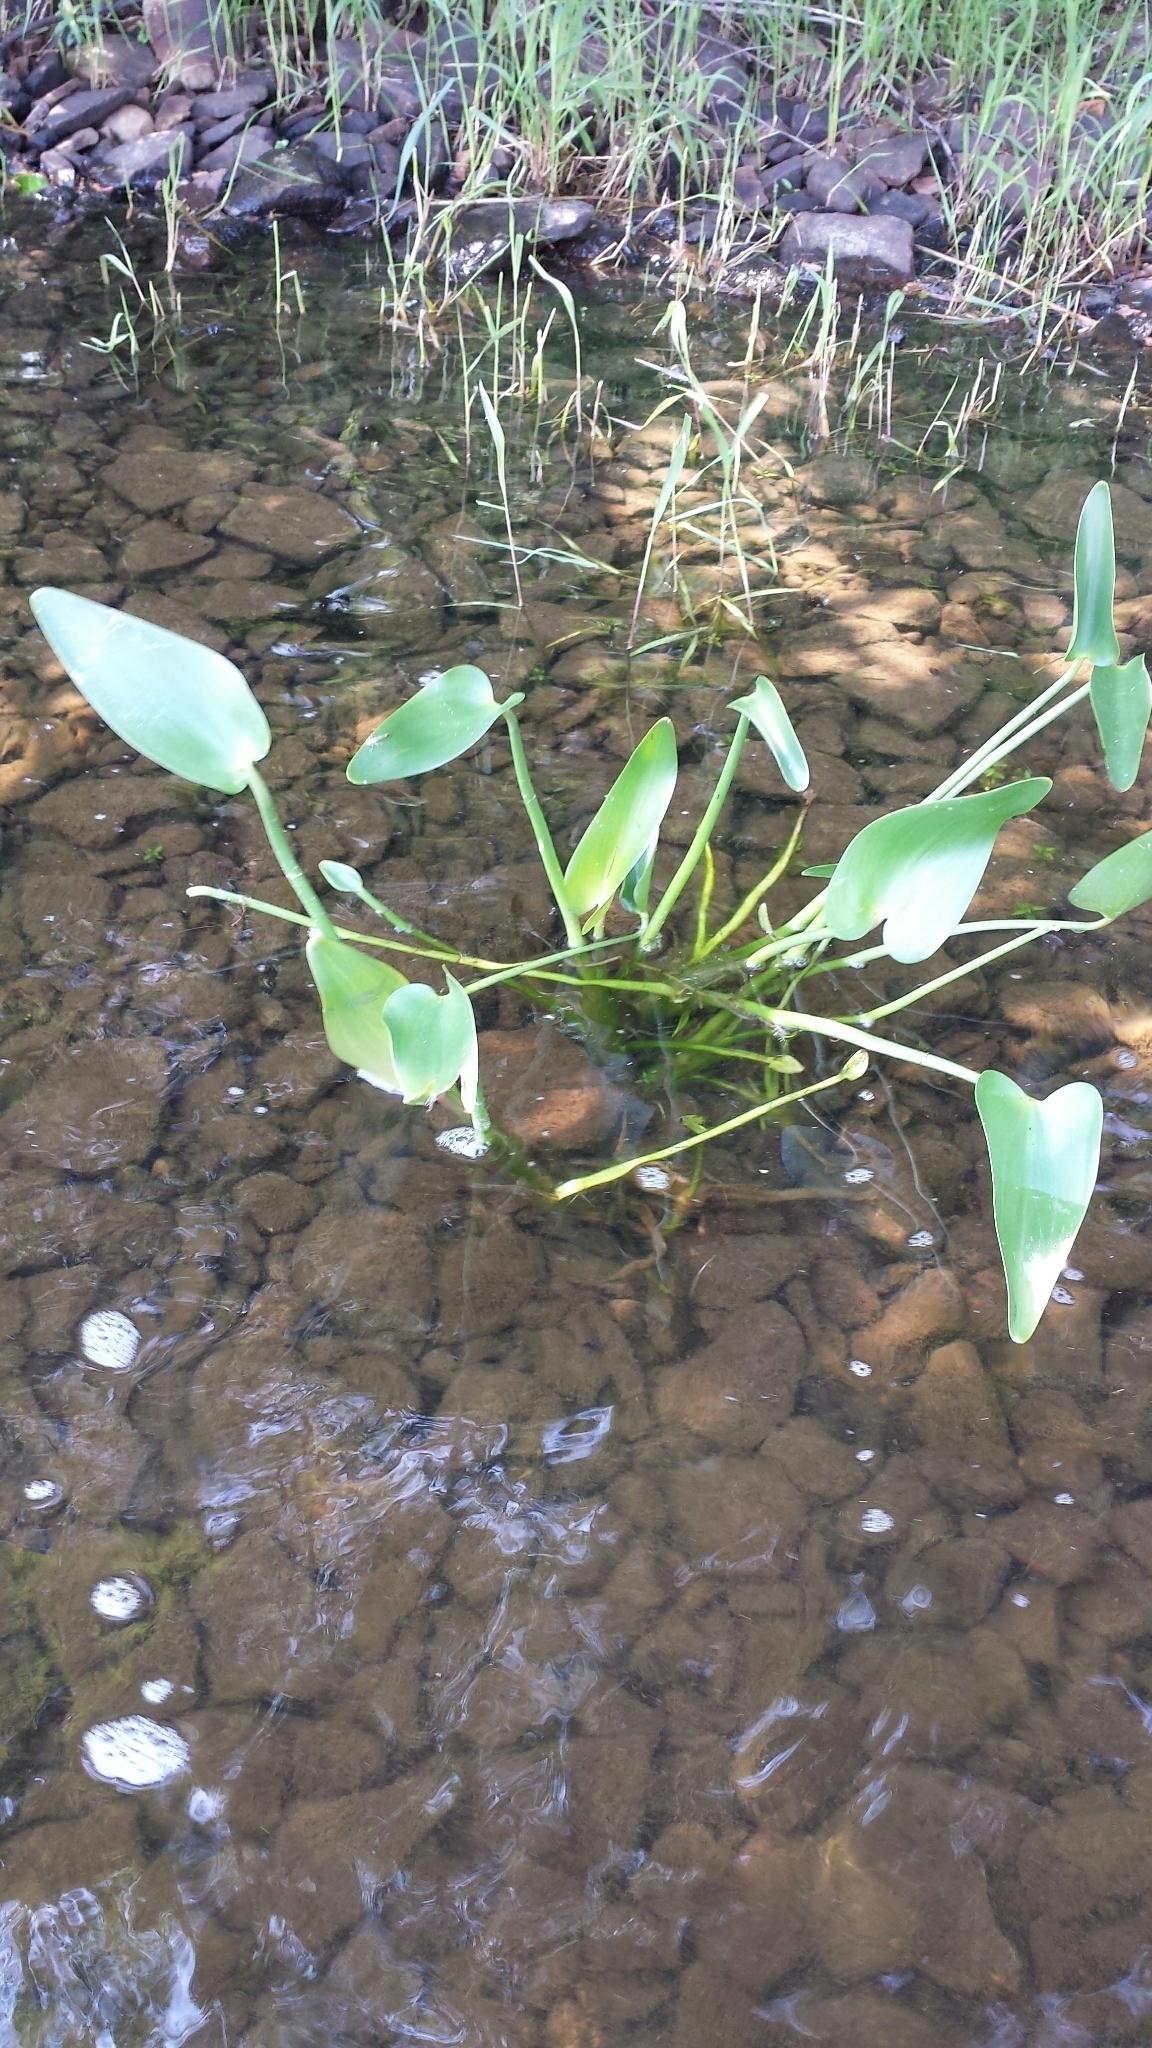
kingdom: Plantae
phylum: Tracheophyta
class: Liliopsida
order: Commelinales
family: Pontederiaceae
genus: Pontederia
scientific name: Pontederia cordata
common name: Pickerelweed
